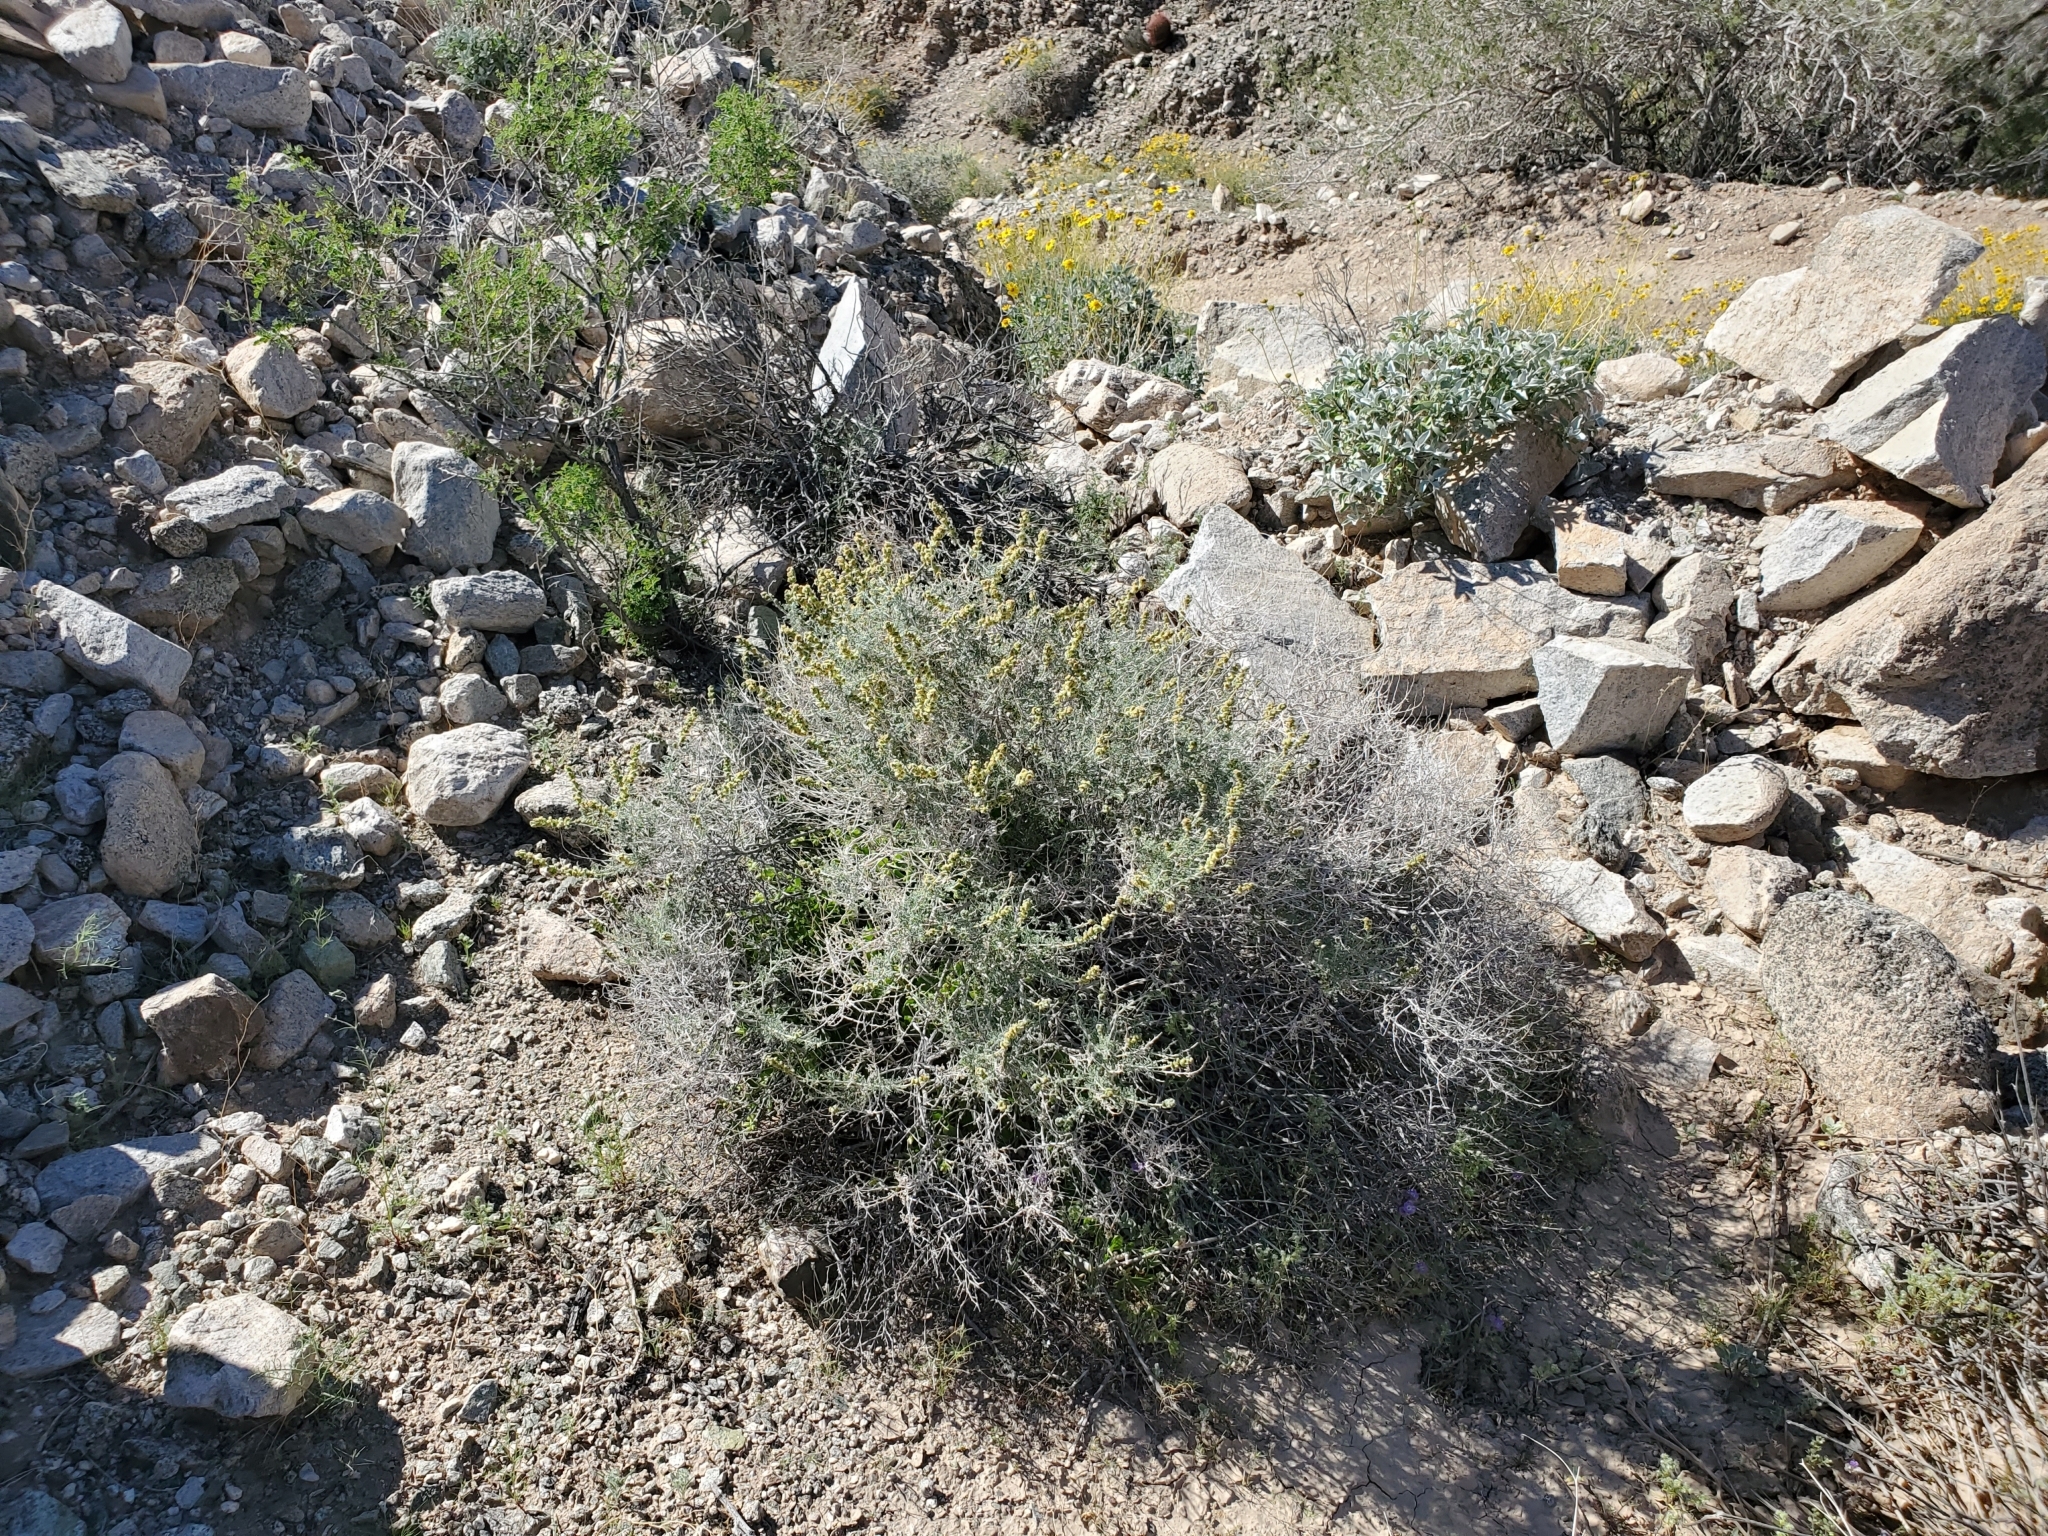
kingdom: Plantae
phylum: Tracheophyta
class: Magnoliopsida
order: Asterales
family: Asteraceae
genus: Ambrosia
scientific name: Ambrosia dumosa
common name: Bur-sage
